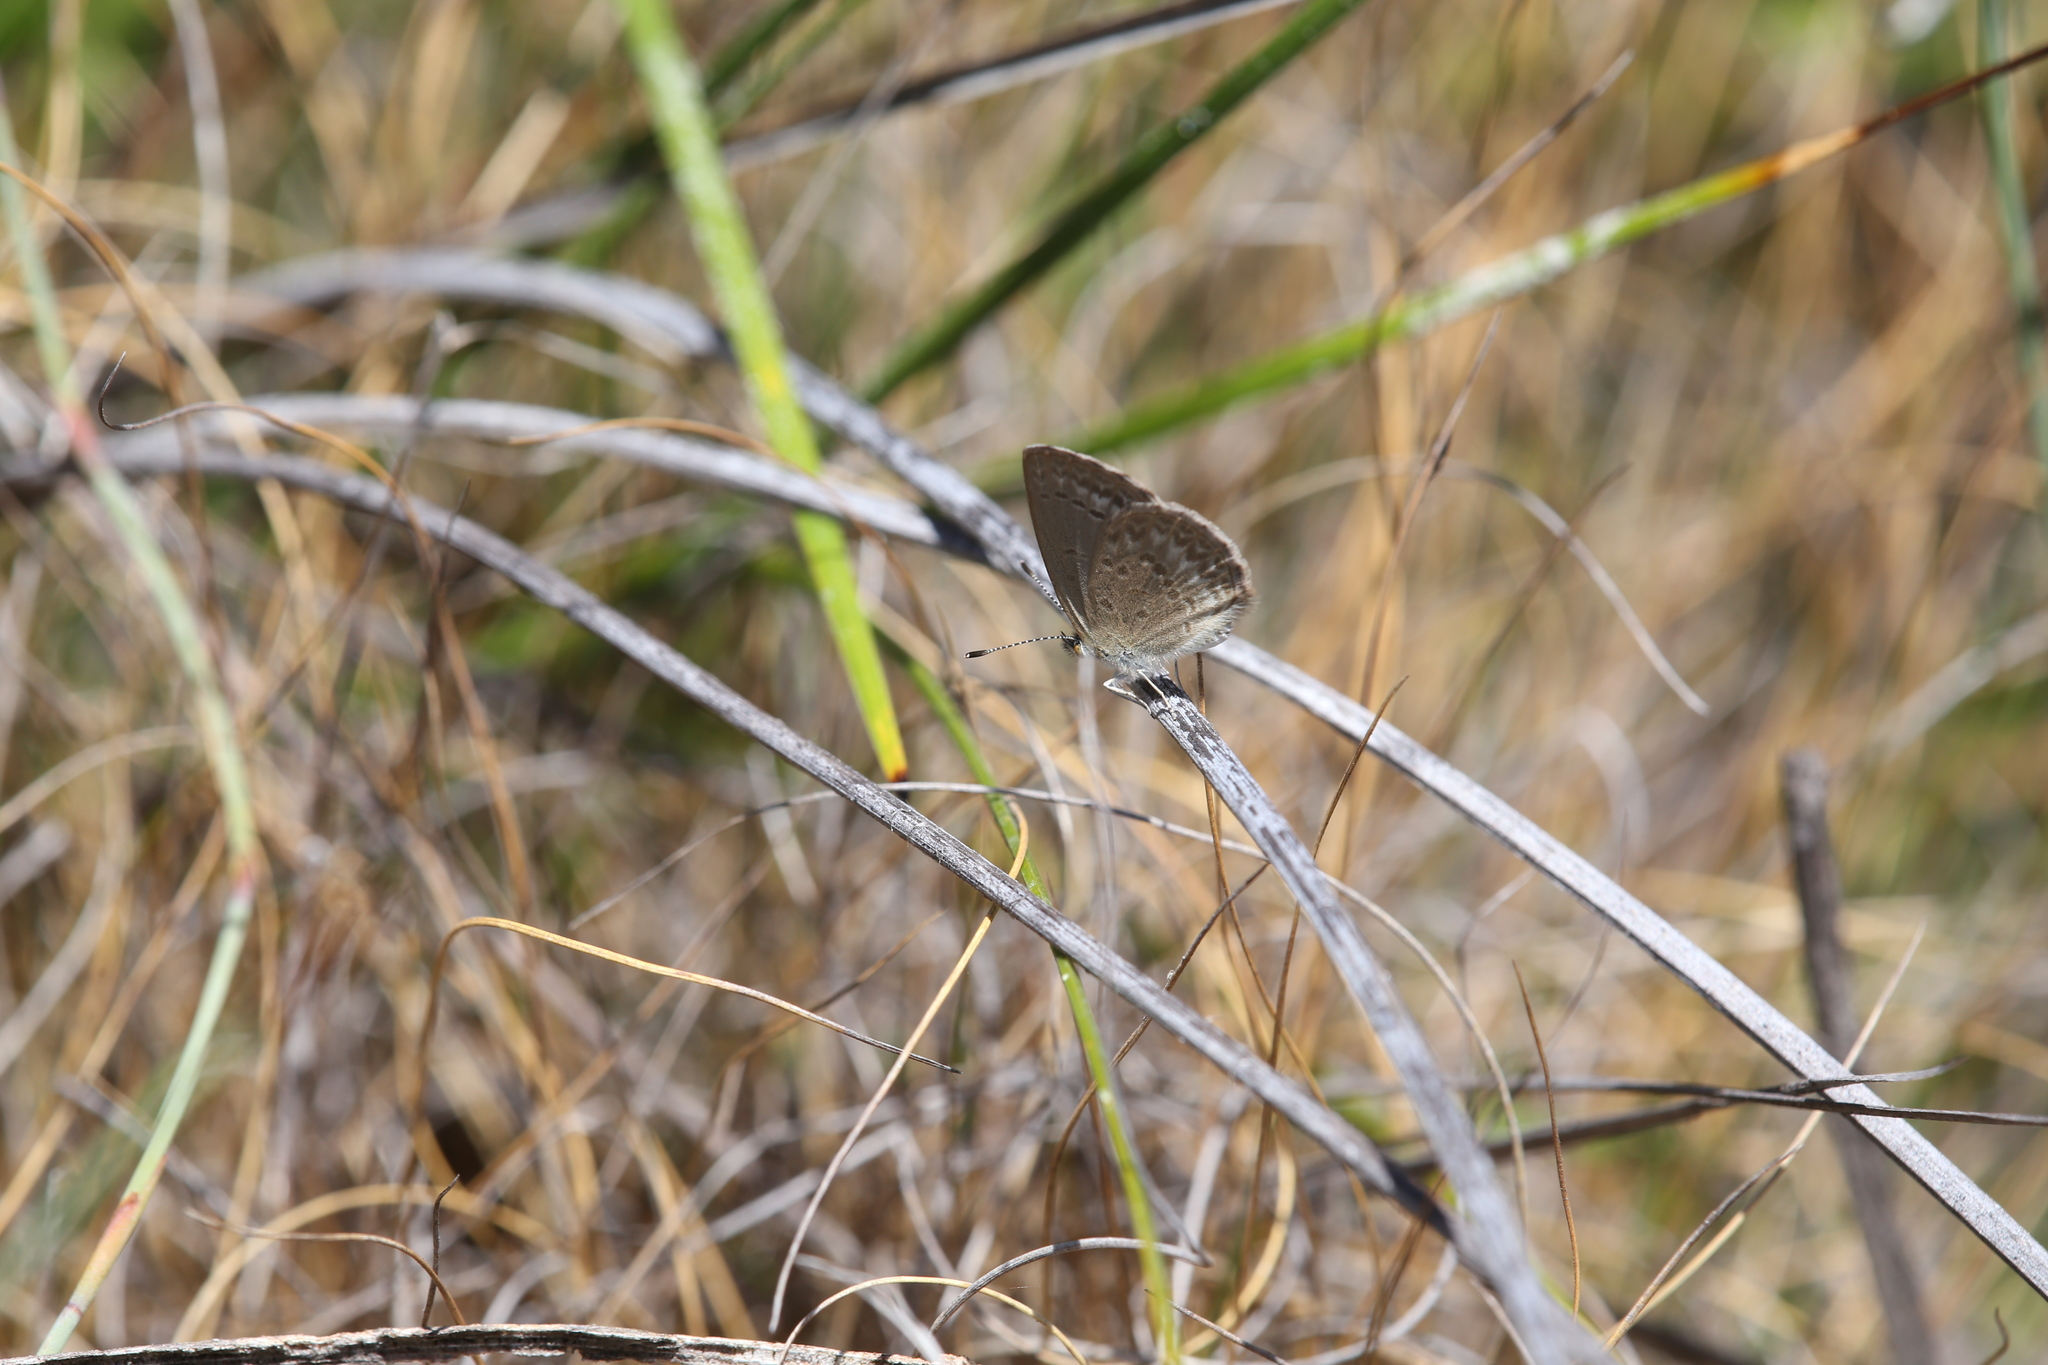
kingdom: Animalia
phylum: Arthropoda
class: Insecta
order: Lepidoptera
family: Lycaenidae
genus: Zizina
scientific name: Zizina otis
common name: Lesser grass blue
